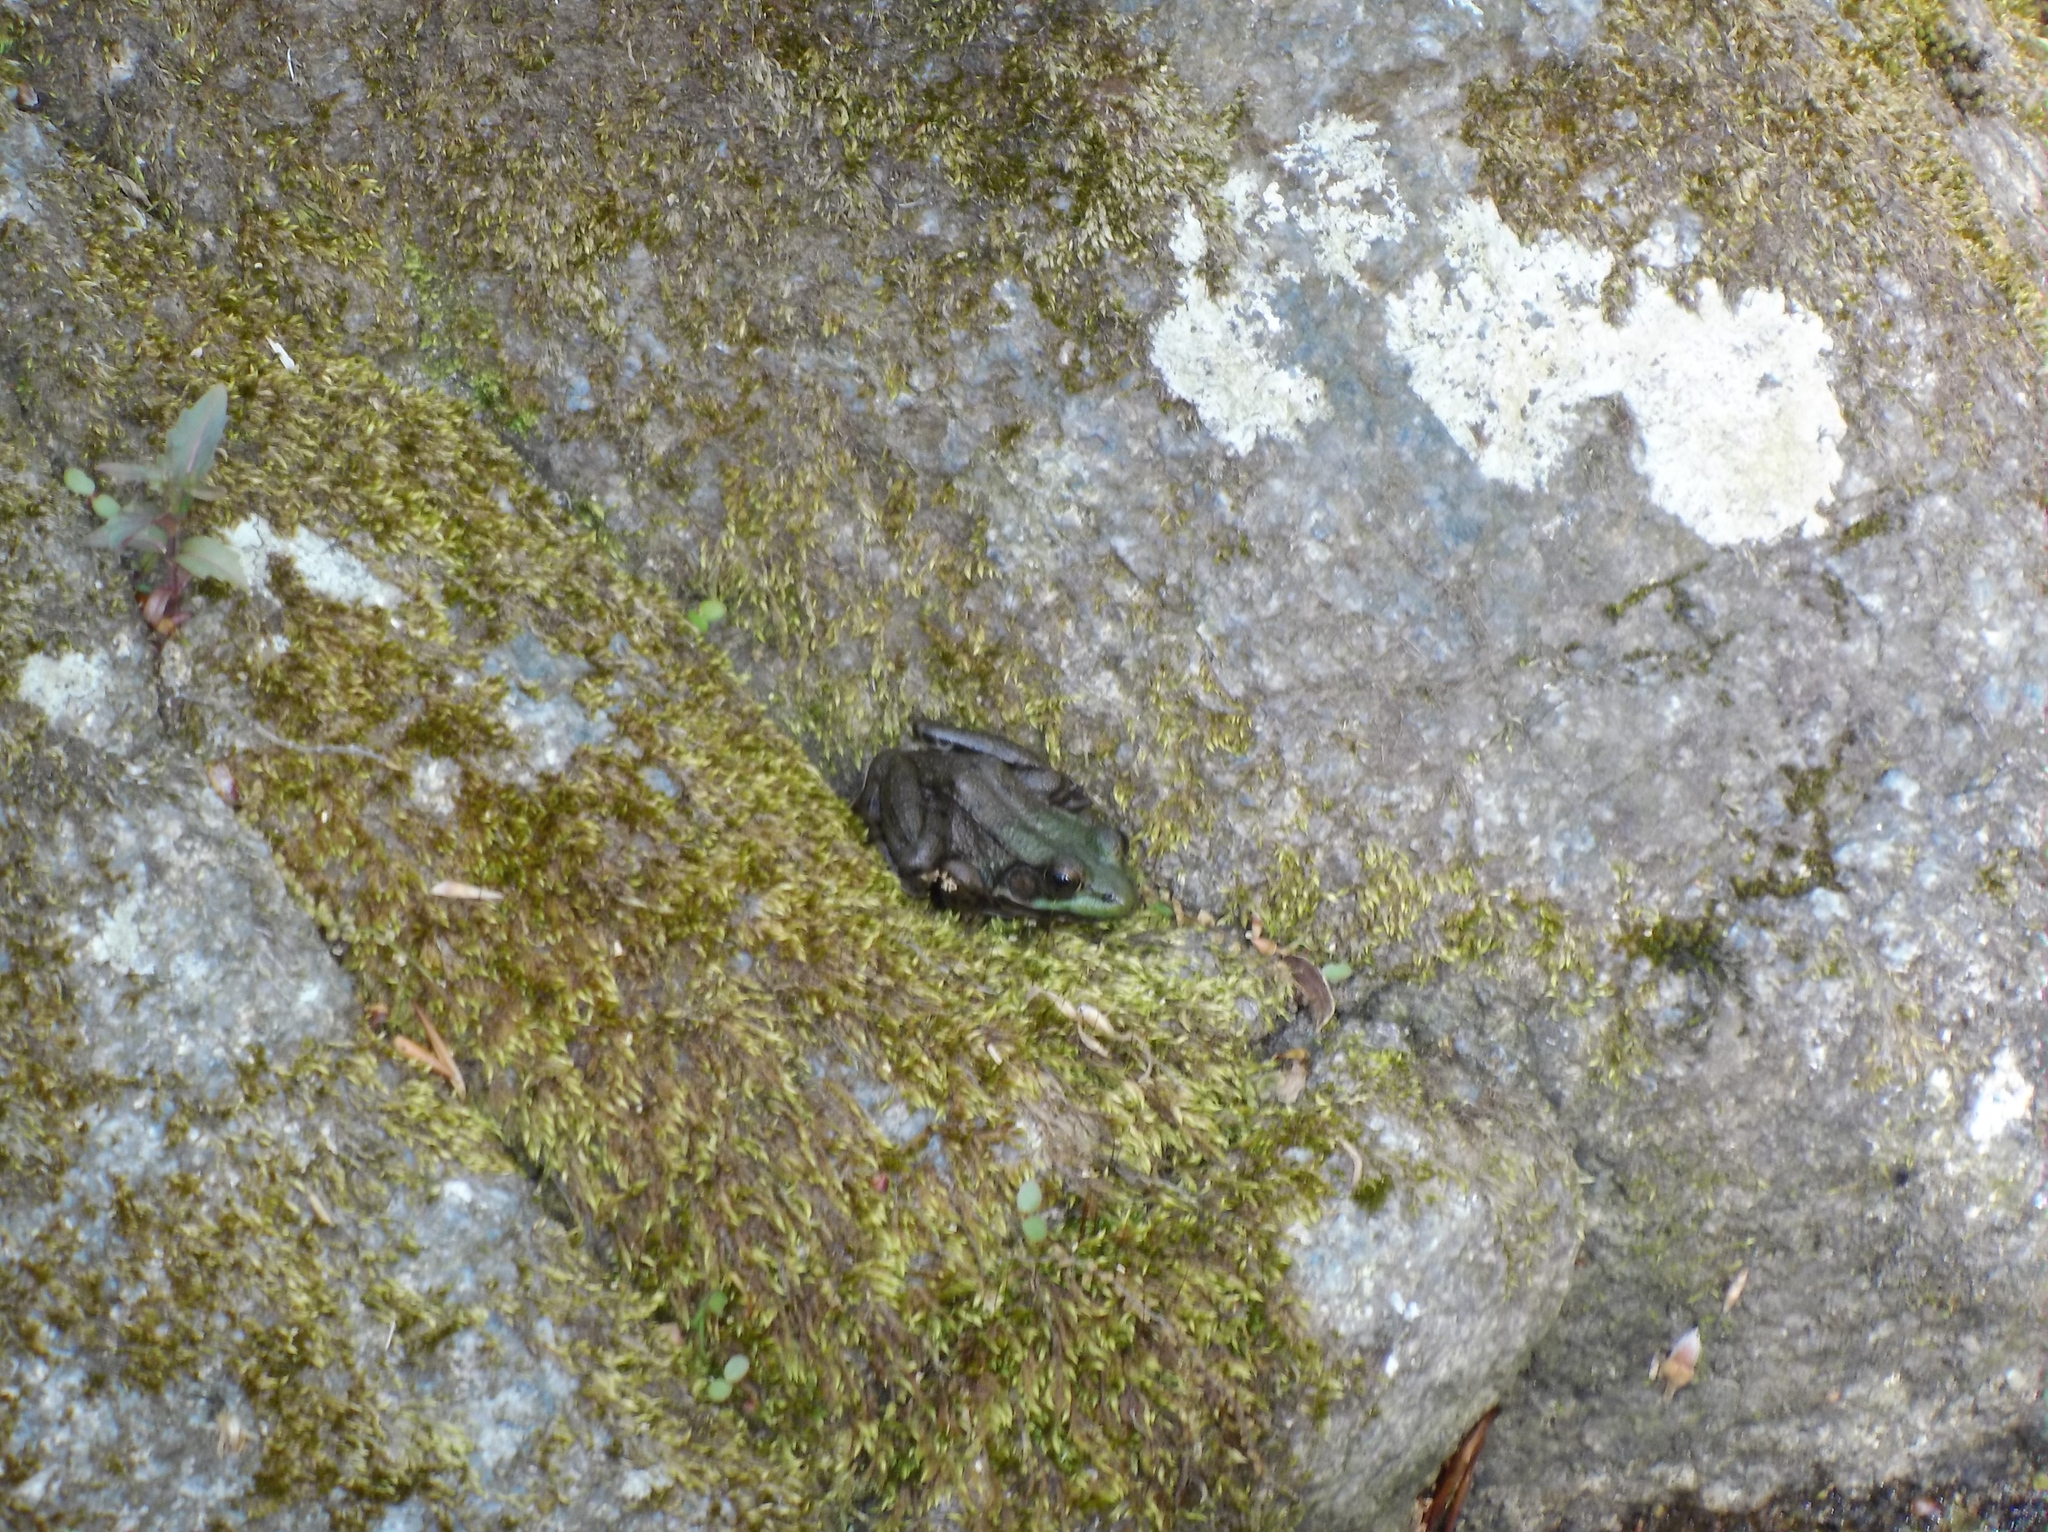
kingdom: Animalia
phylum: Chordata
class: Amphibia
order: Anura
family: Ranidae
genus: Lithobates
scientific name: Lithobates clamitans
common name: Green frog
